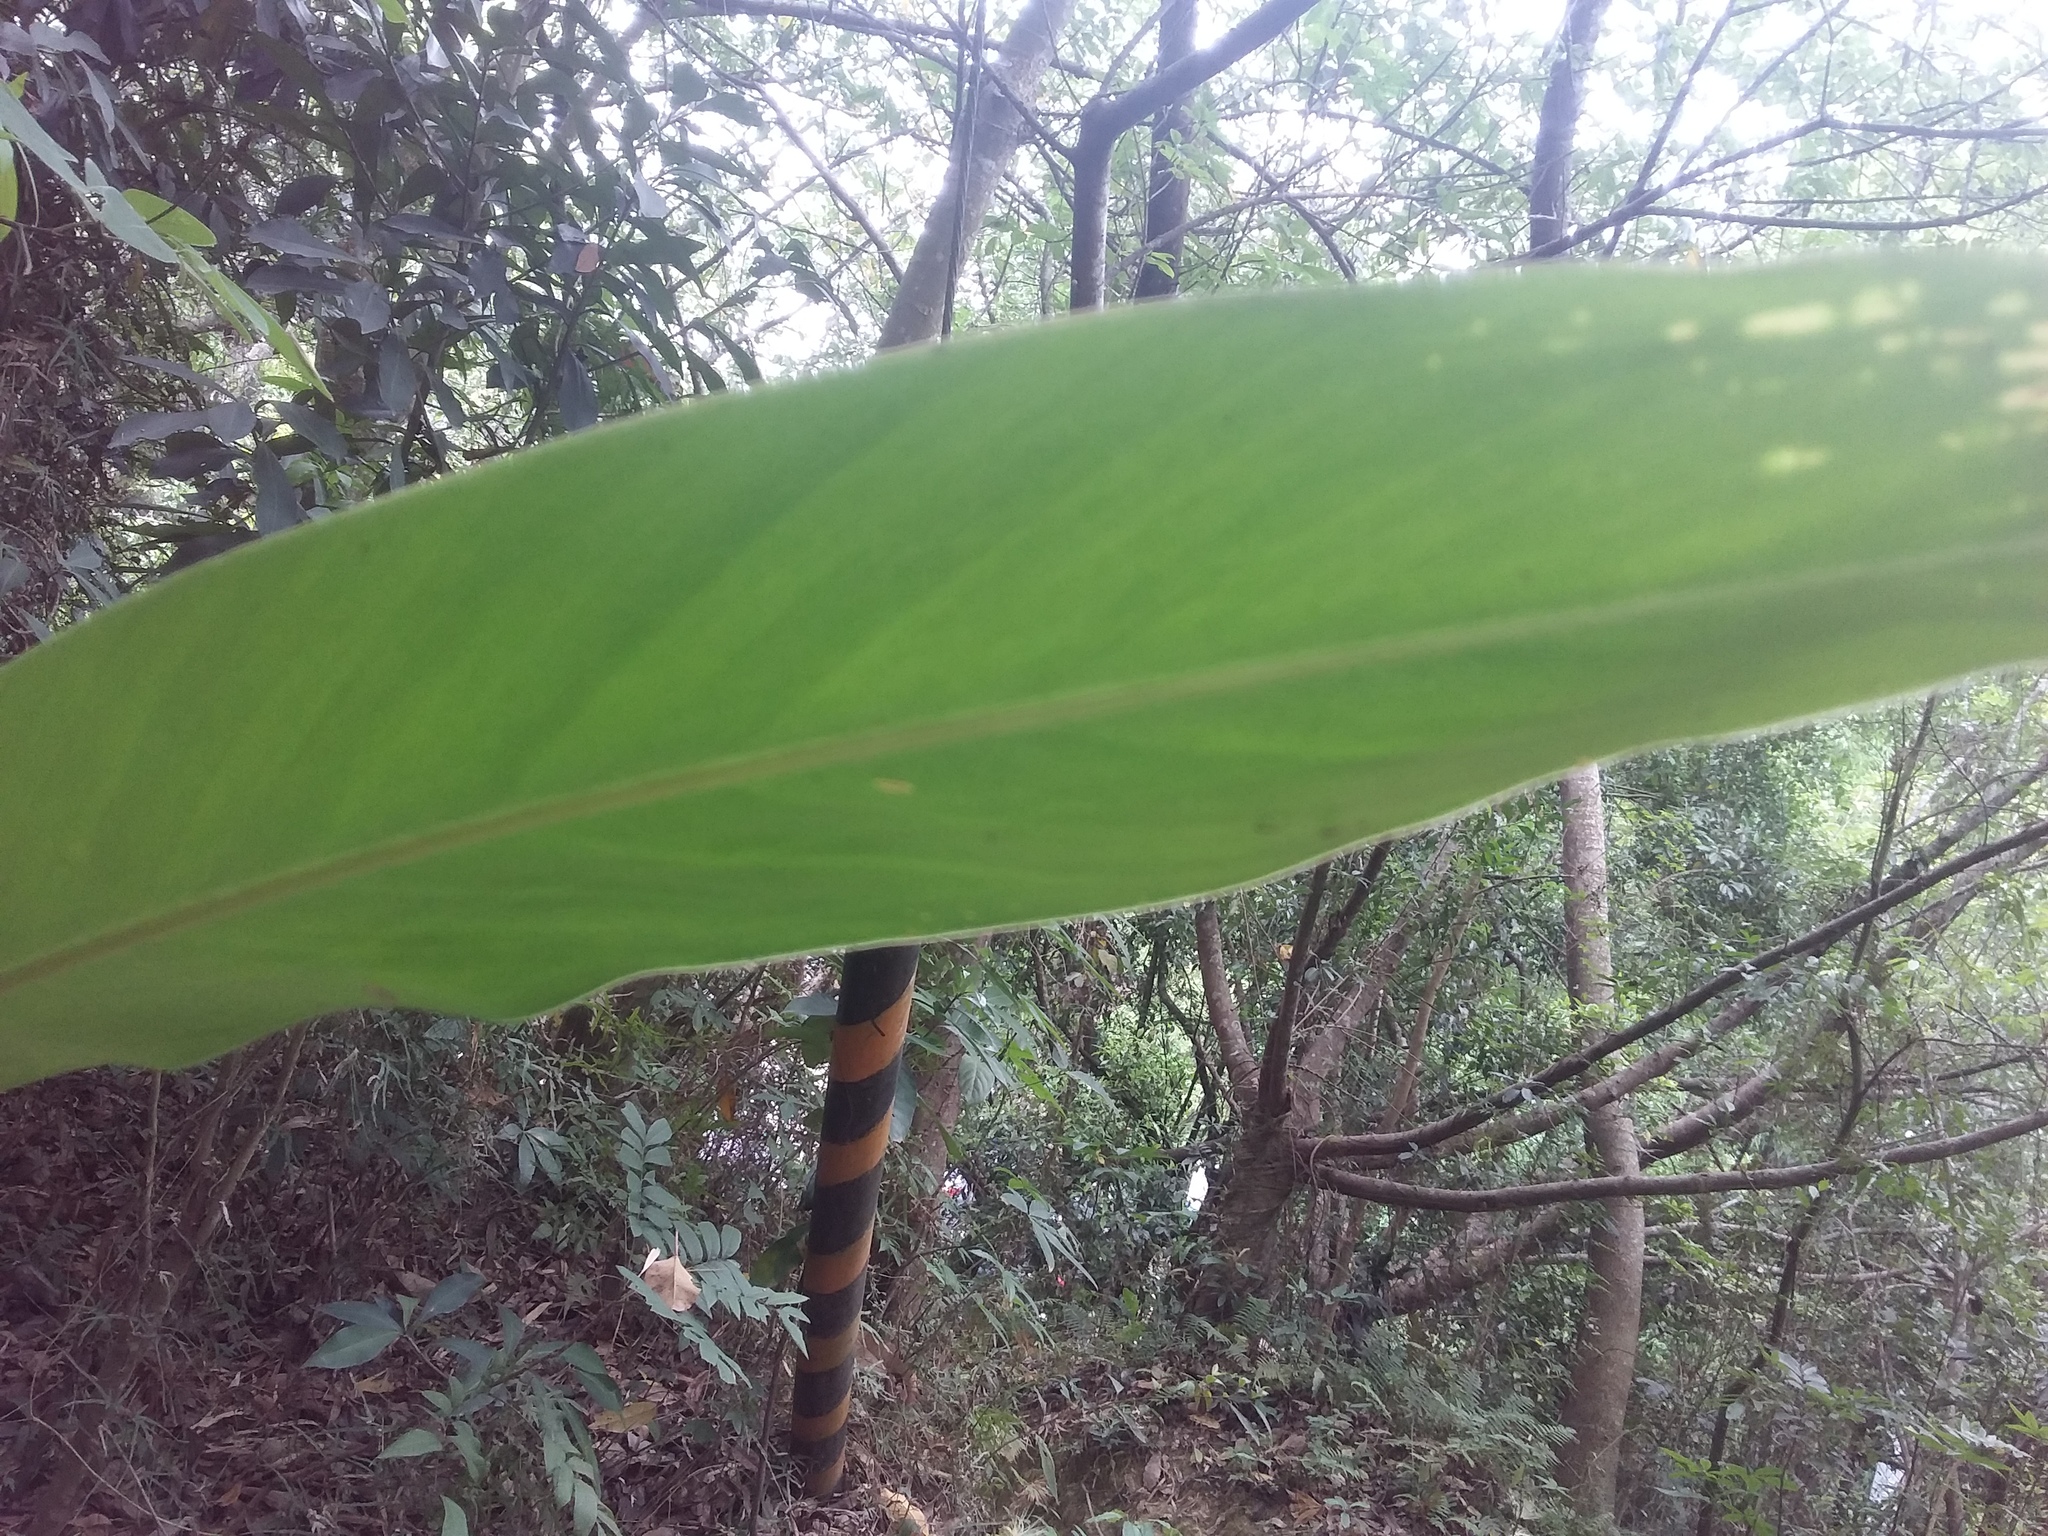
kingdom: Plantae
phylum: Tracheophyta
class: Liliopsida
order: Zingiberales
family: Zingiberaceae
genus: Alpinia
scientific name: Alpinia zerumbet
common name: Shellplant
